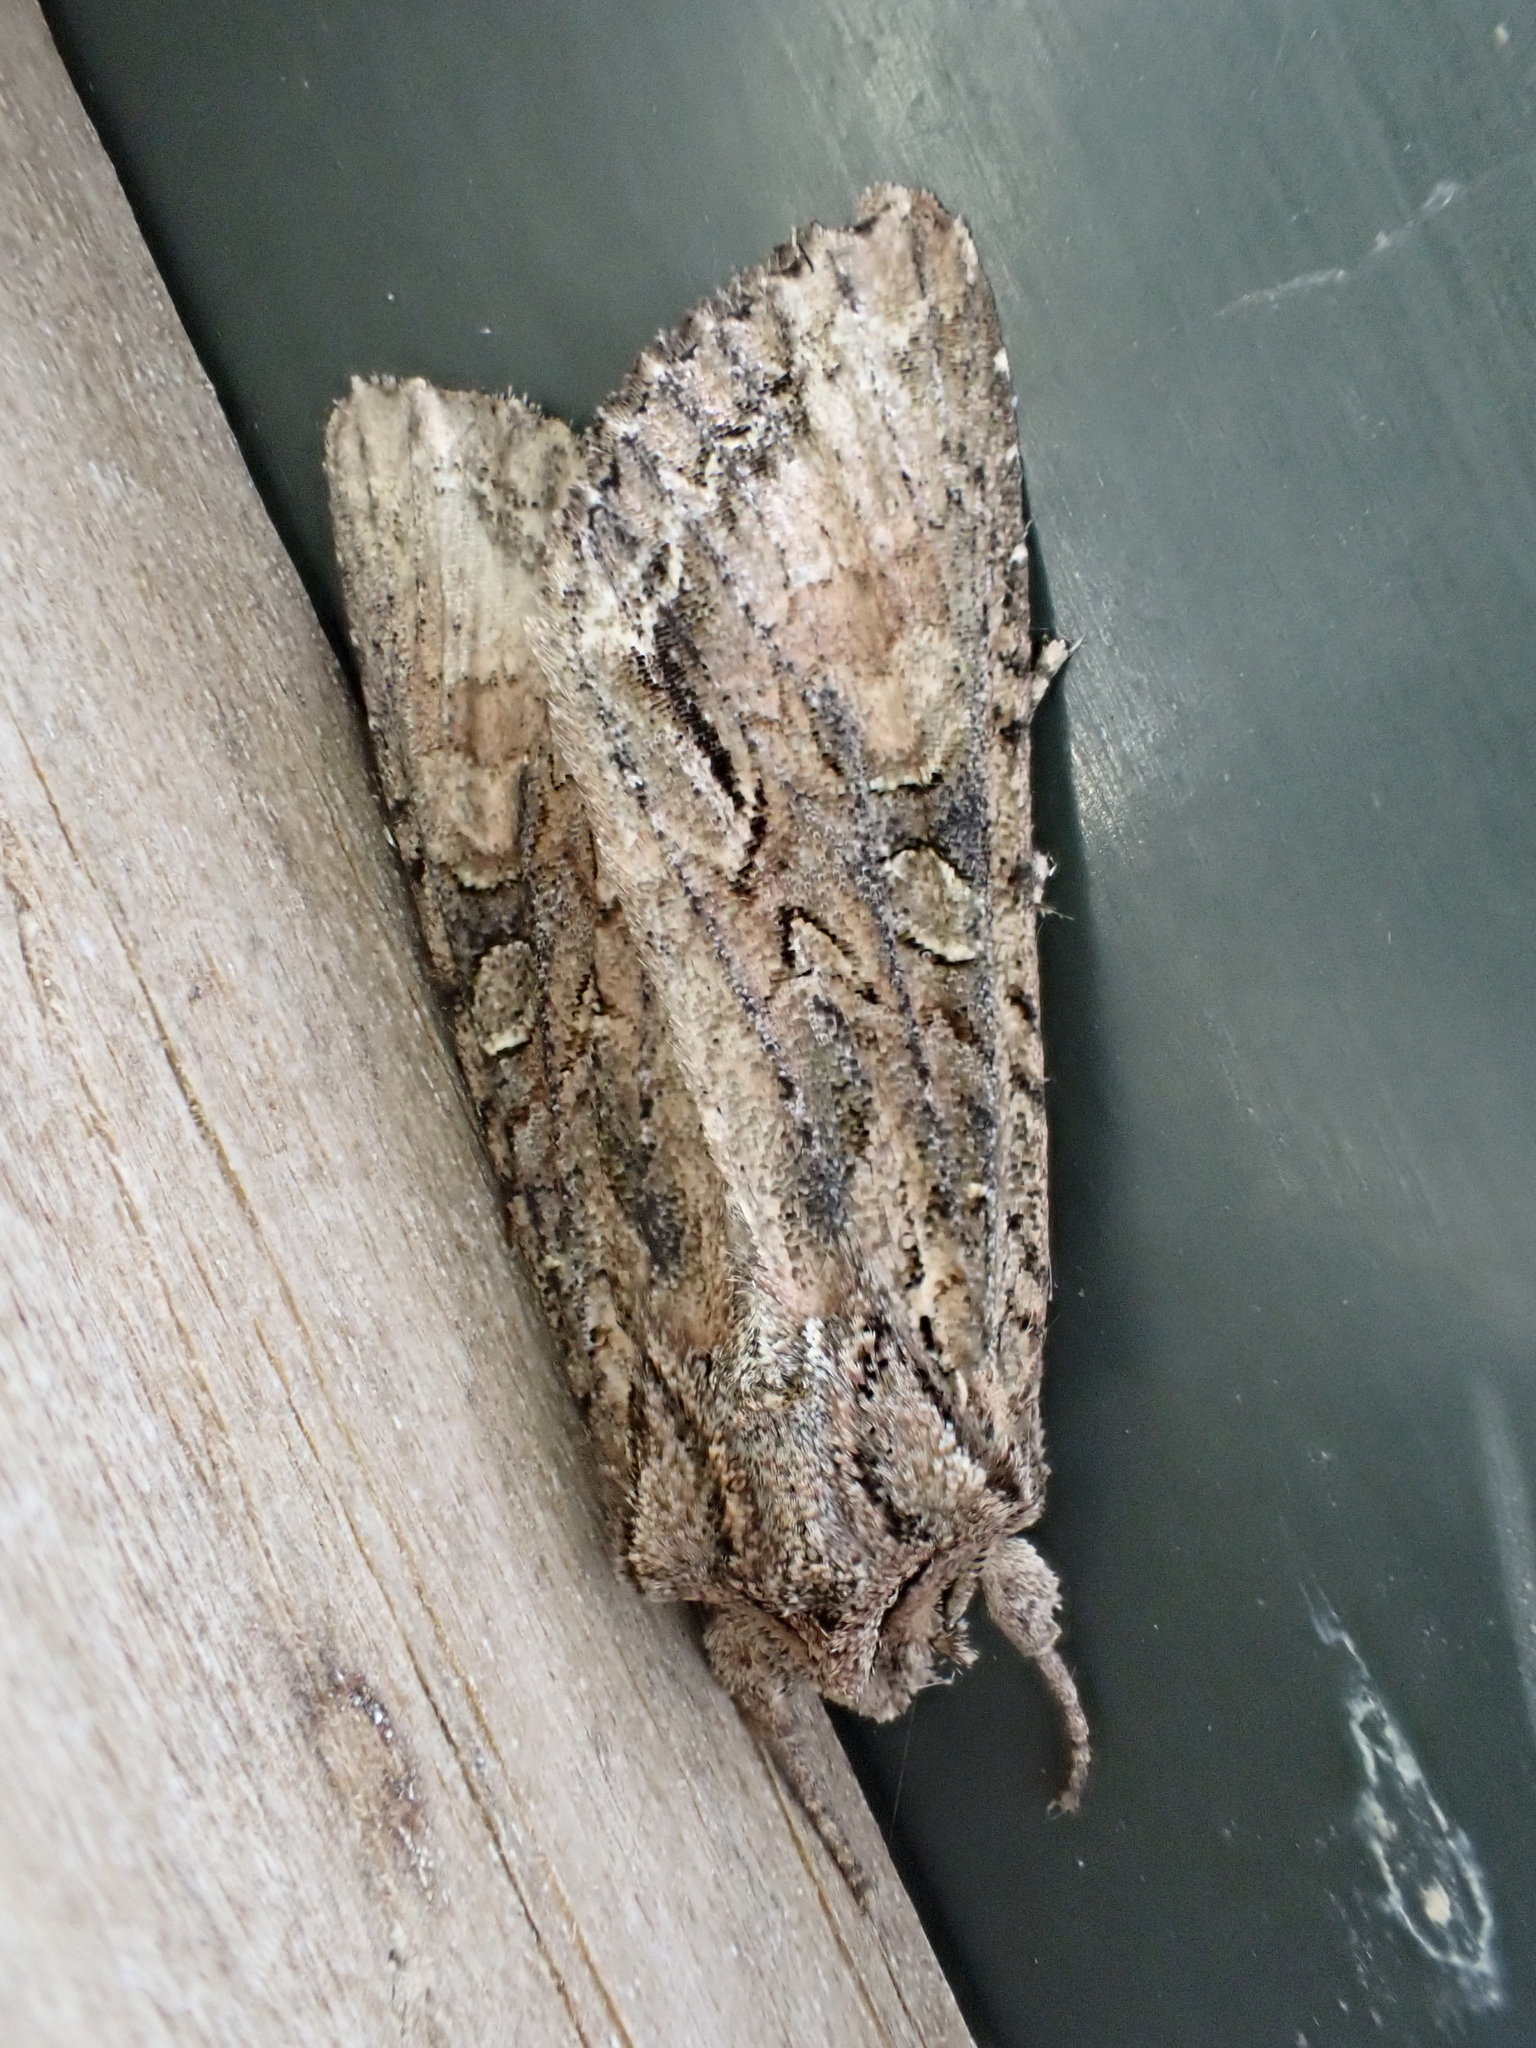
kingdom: Animalia
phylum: Arthropoda
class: Insecta
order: Lepidoptera
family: Noctuidae
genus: Ichneutica
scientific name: Ichneutica mutans
